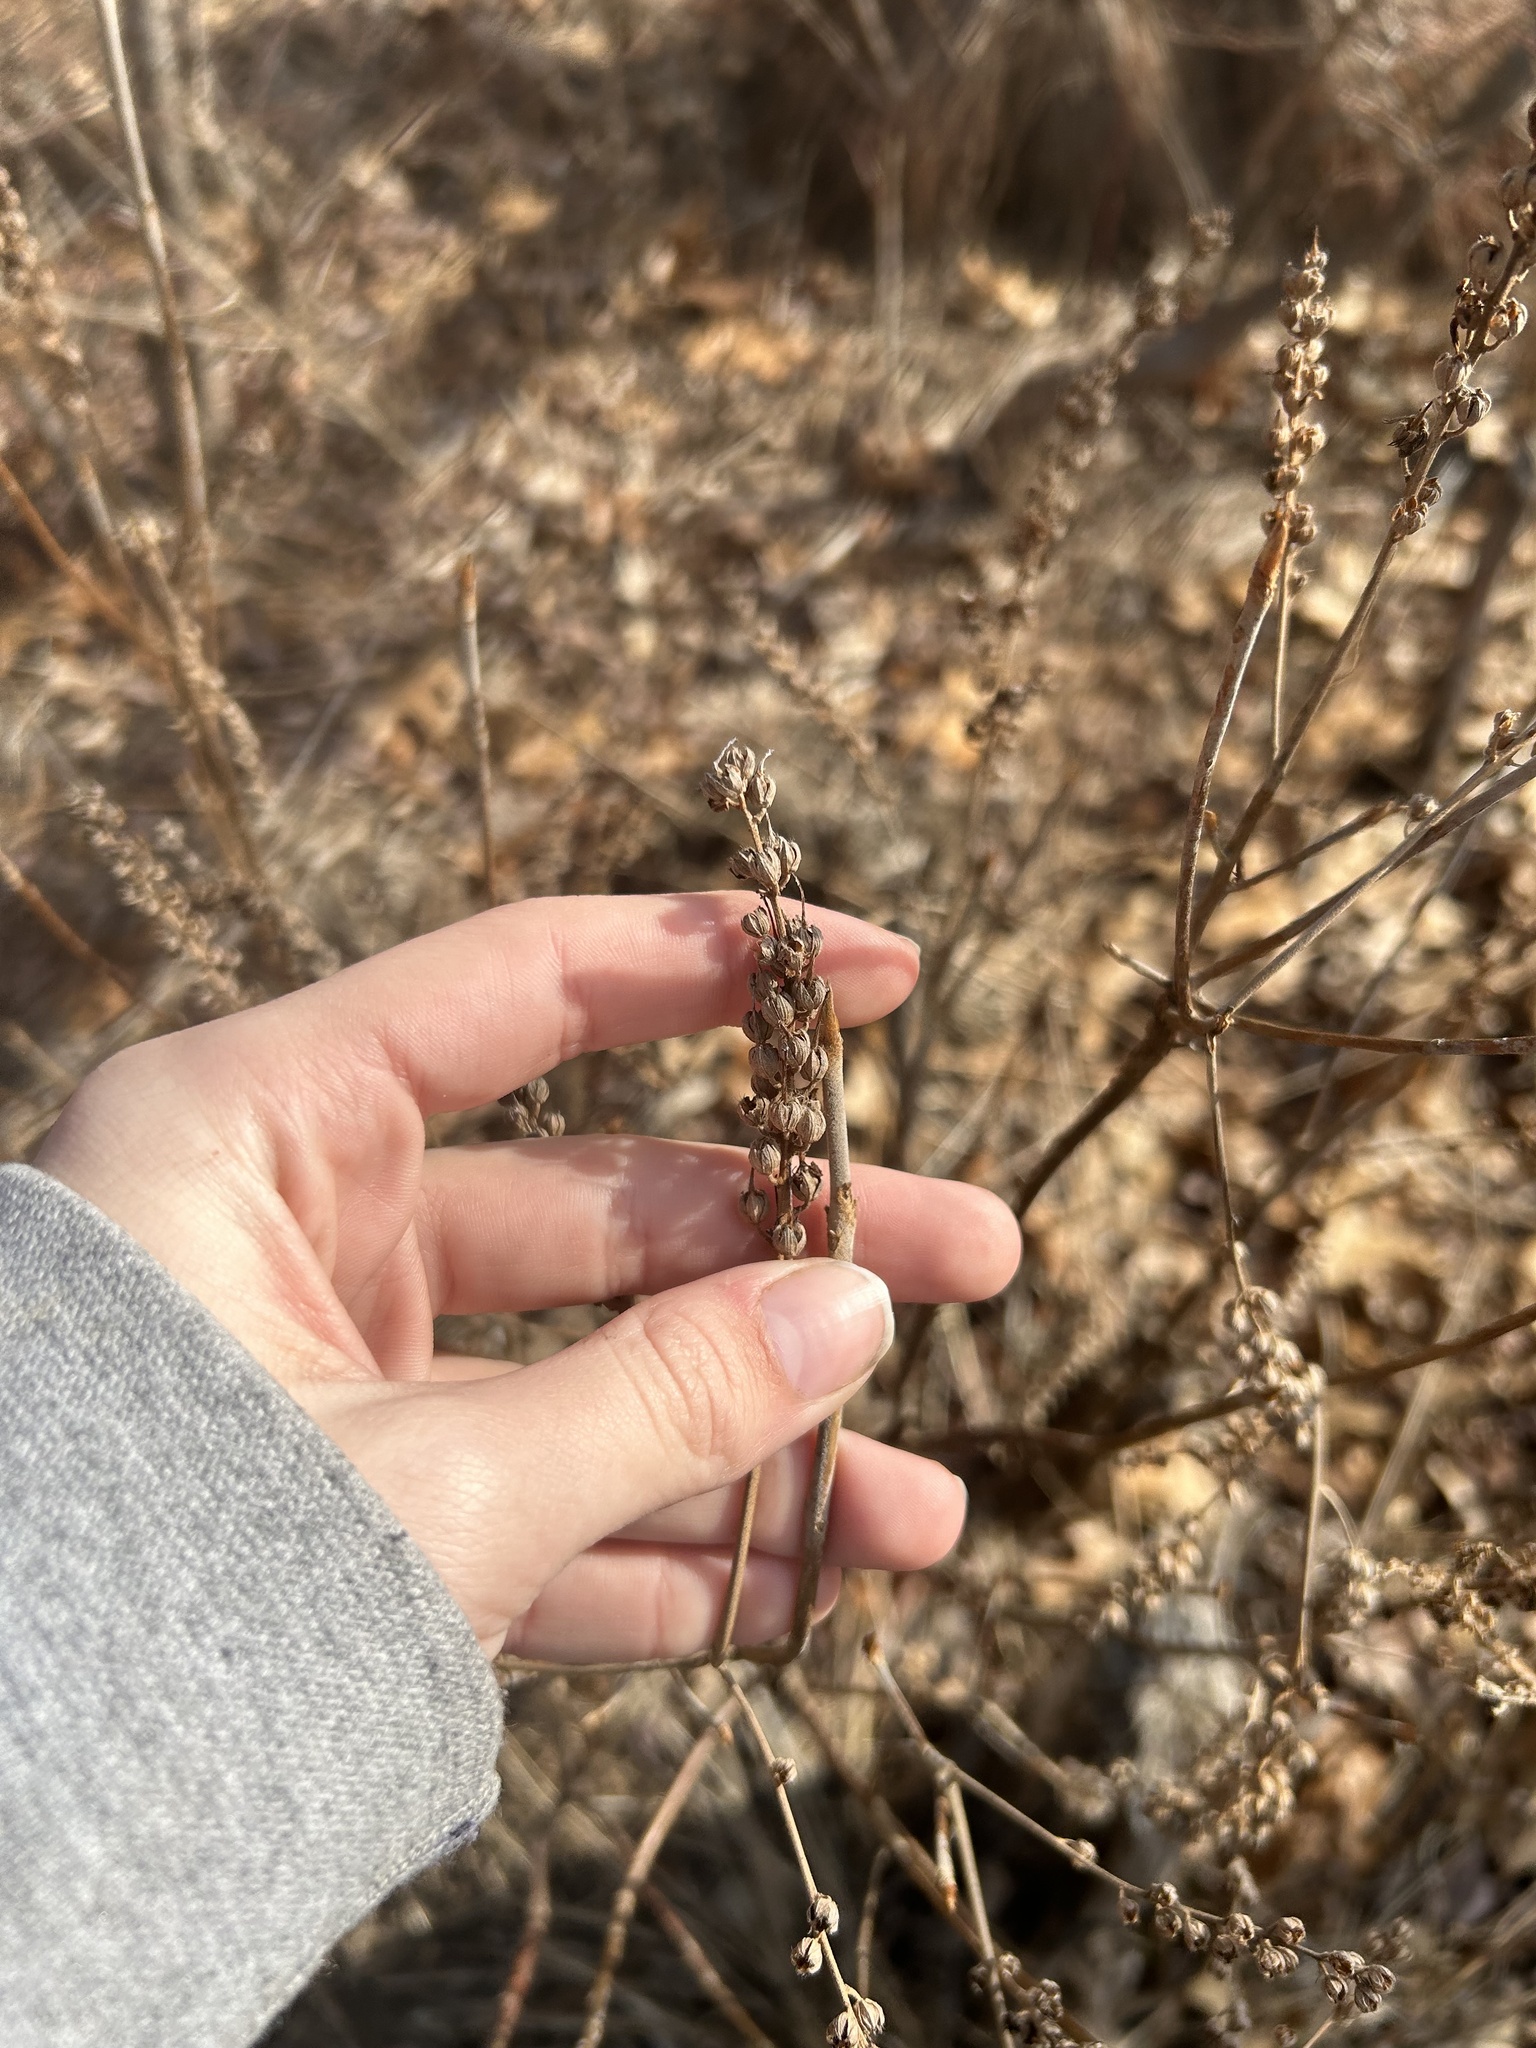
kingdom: Plantae
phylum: Tracheophyta
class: Magnoliopsida
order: Ericales
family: Clethraceae
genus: Clethra
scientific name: Clethra alnifolia
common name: Sweet pepperbush
